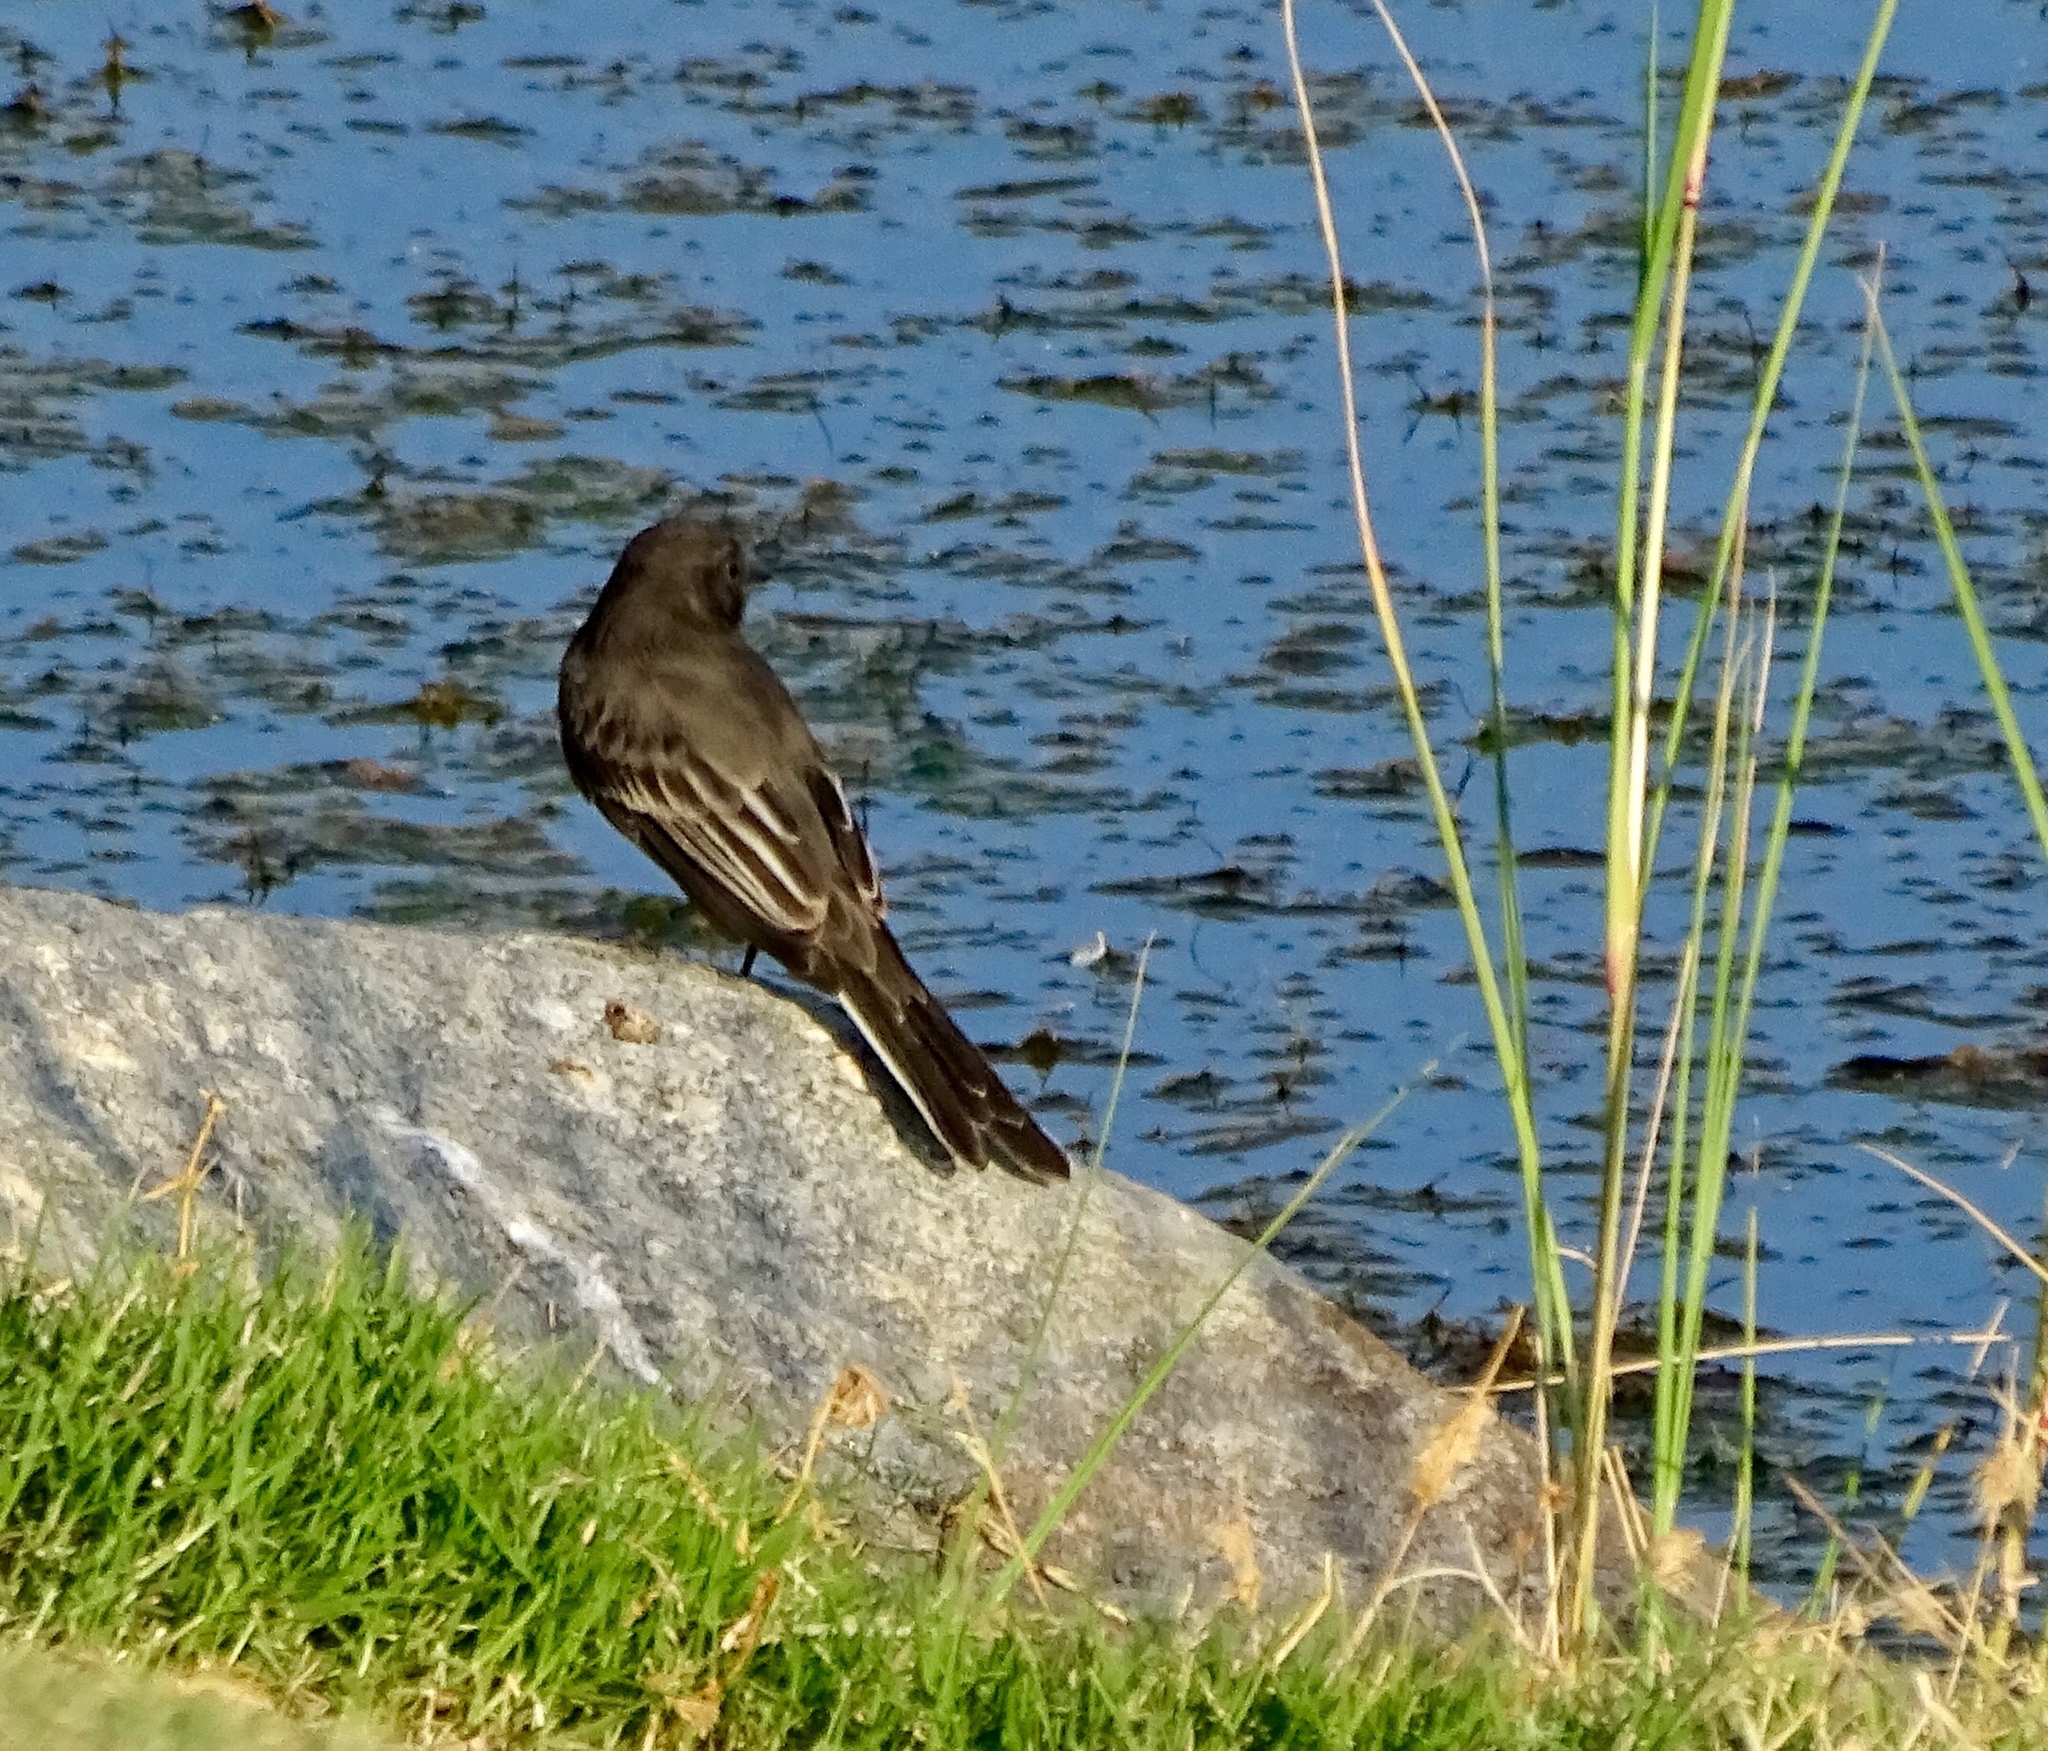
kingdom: Animalia
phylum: Chordata
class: Aves
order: Passeriformes
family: Tyrannidae
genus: Sayornis
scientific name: Sayornis nigricans
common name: Black phoebe
